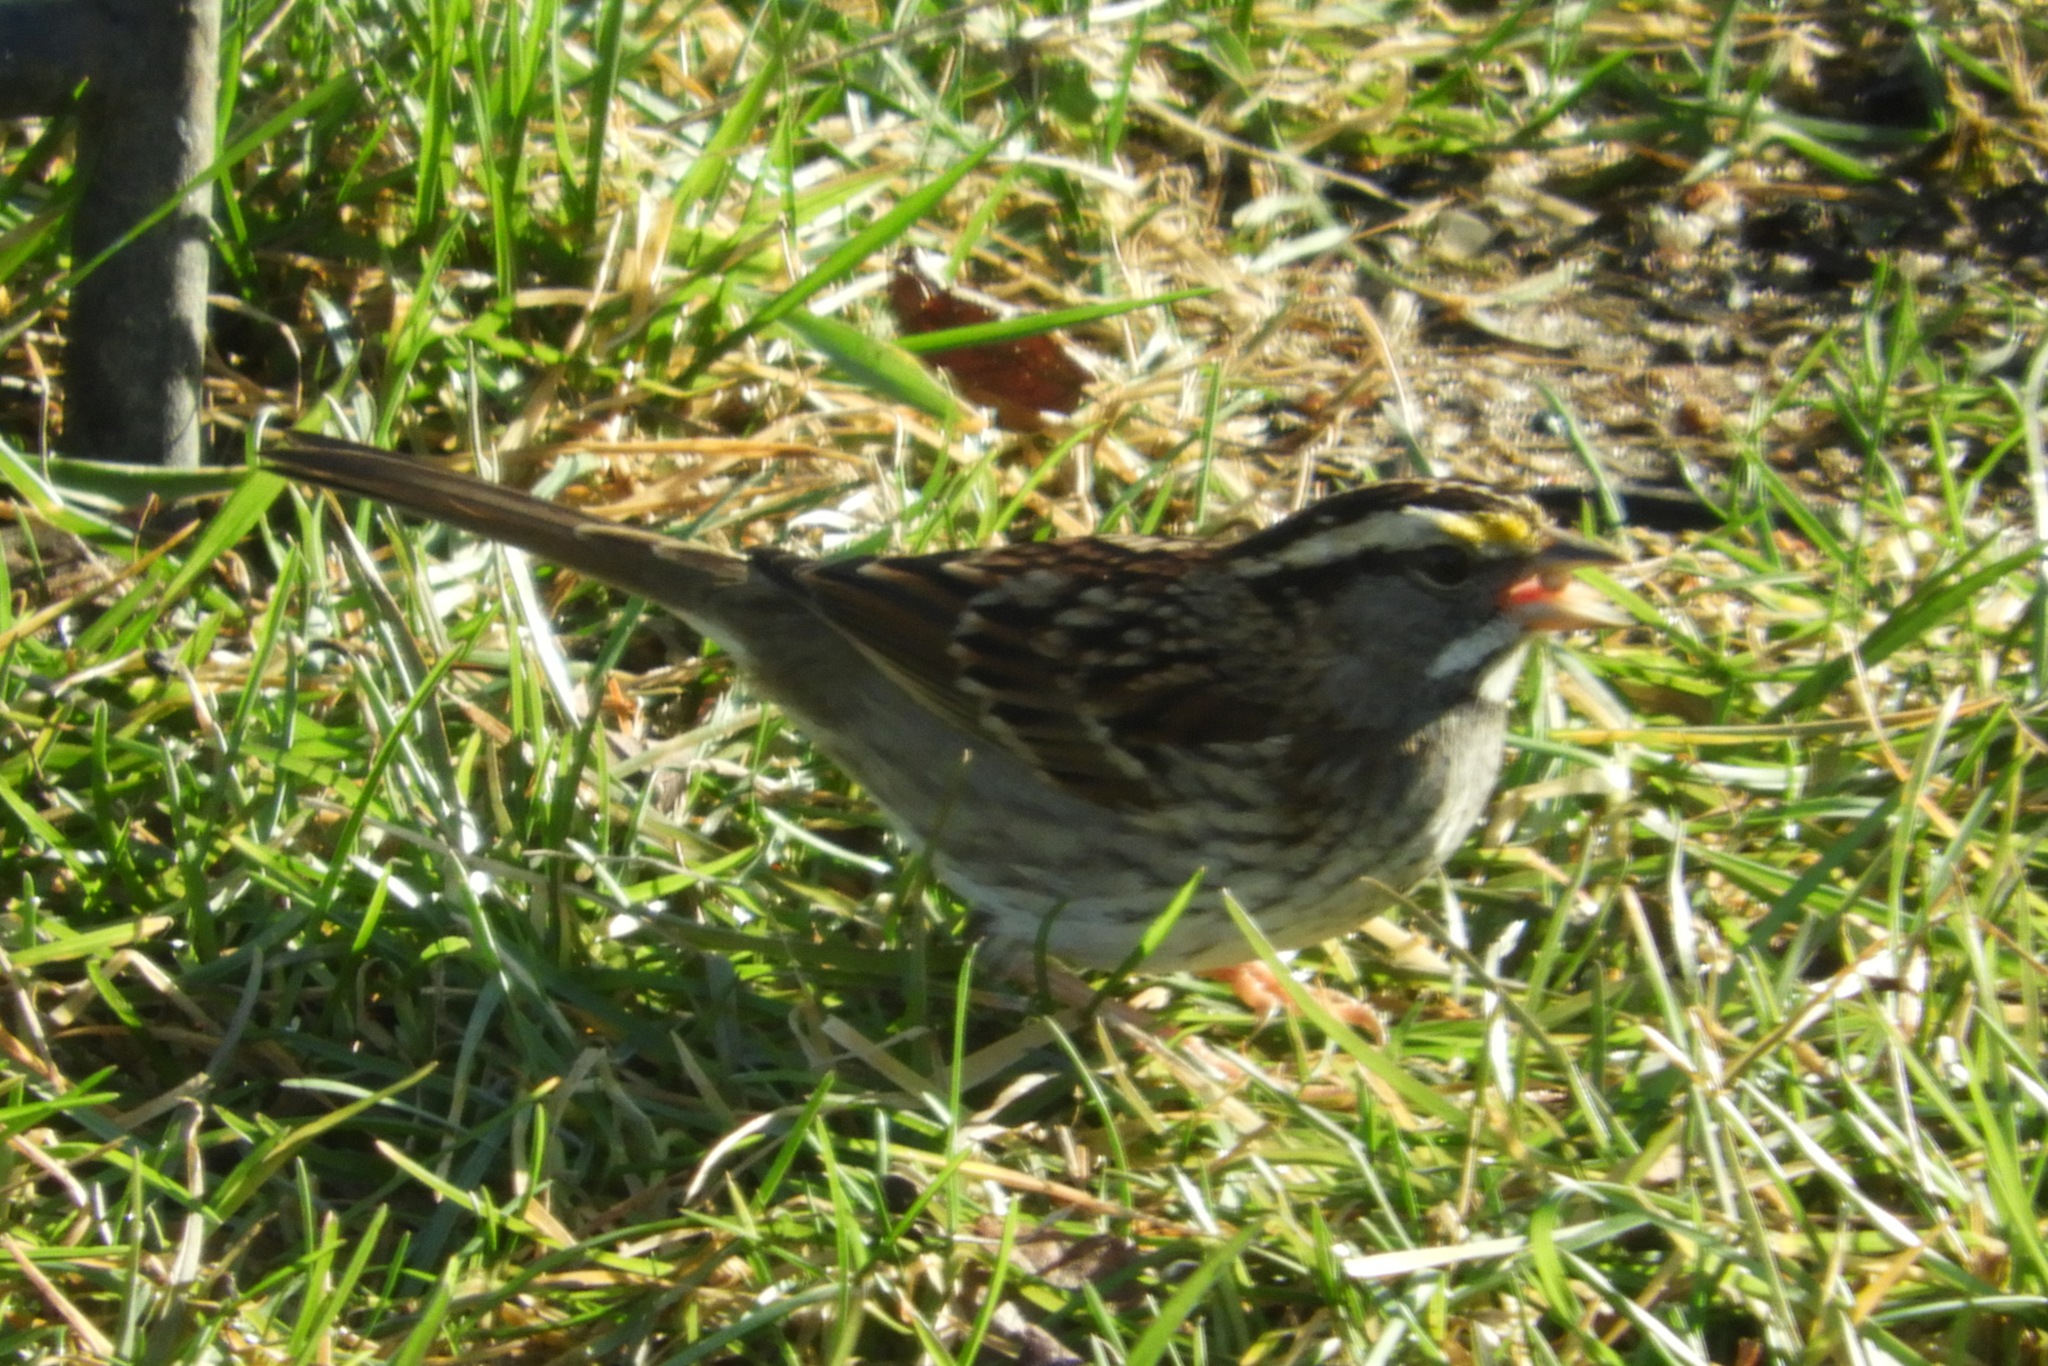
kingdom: Animalia
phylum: Chordata
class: Aves
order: Passeriformes
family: Passerellidae
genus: Zonotrichia
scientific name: Zonotrichia albicollis
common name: White-throated sparrow
